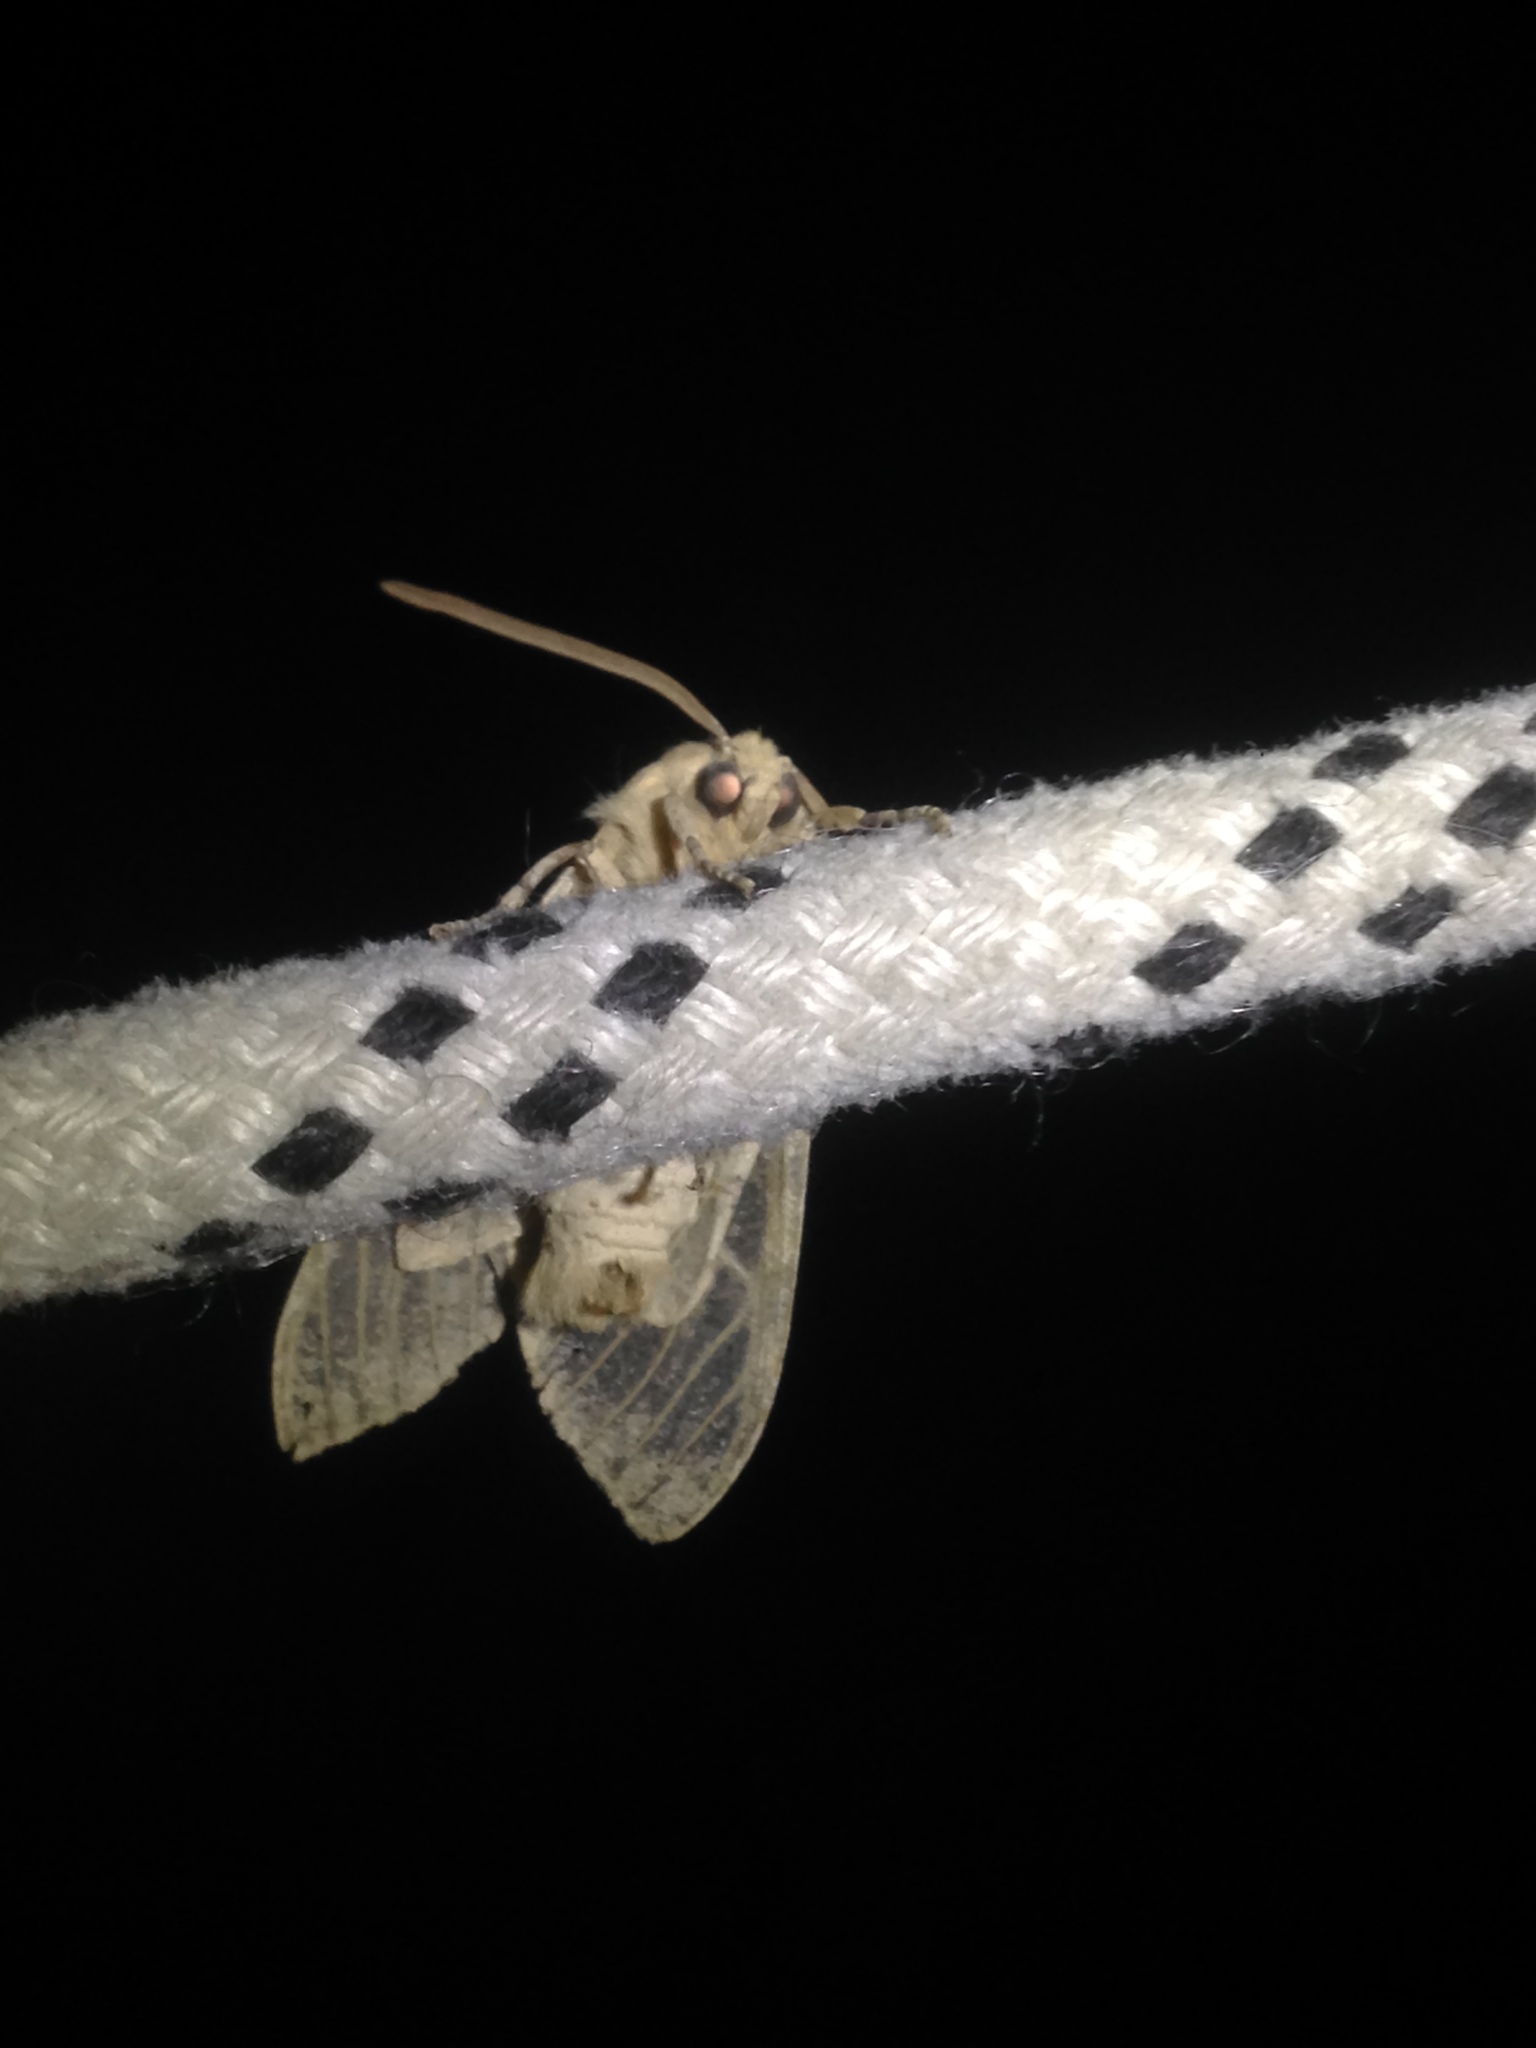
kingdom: Animalia
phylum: Arthropoda
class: Insecta
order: Lepidoptera
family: Erebidae
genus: Hemihyalea
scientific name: Hemihyalea edwardsii
